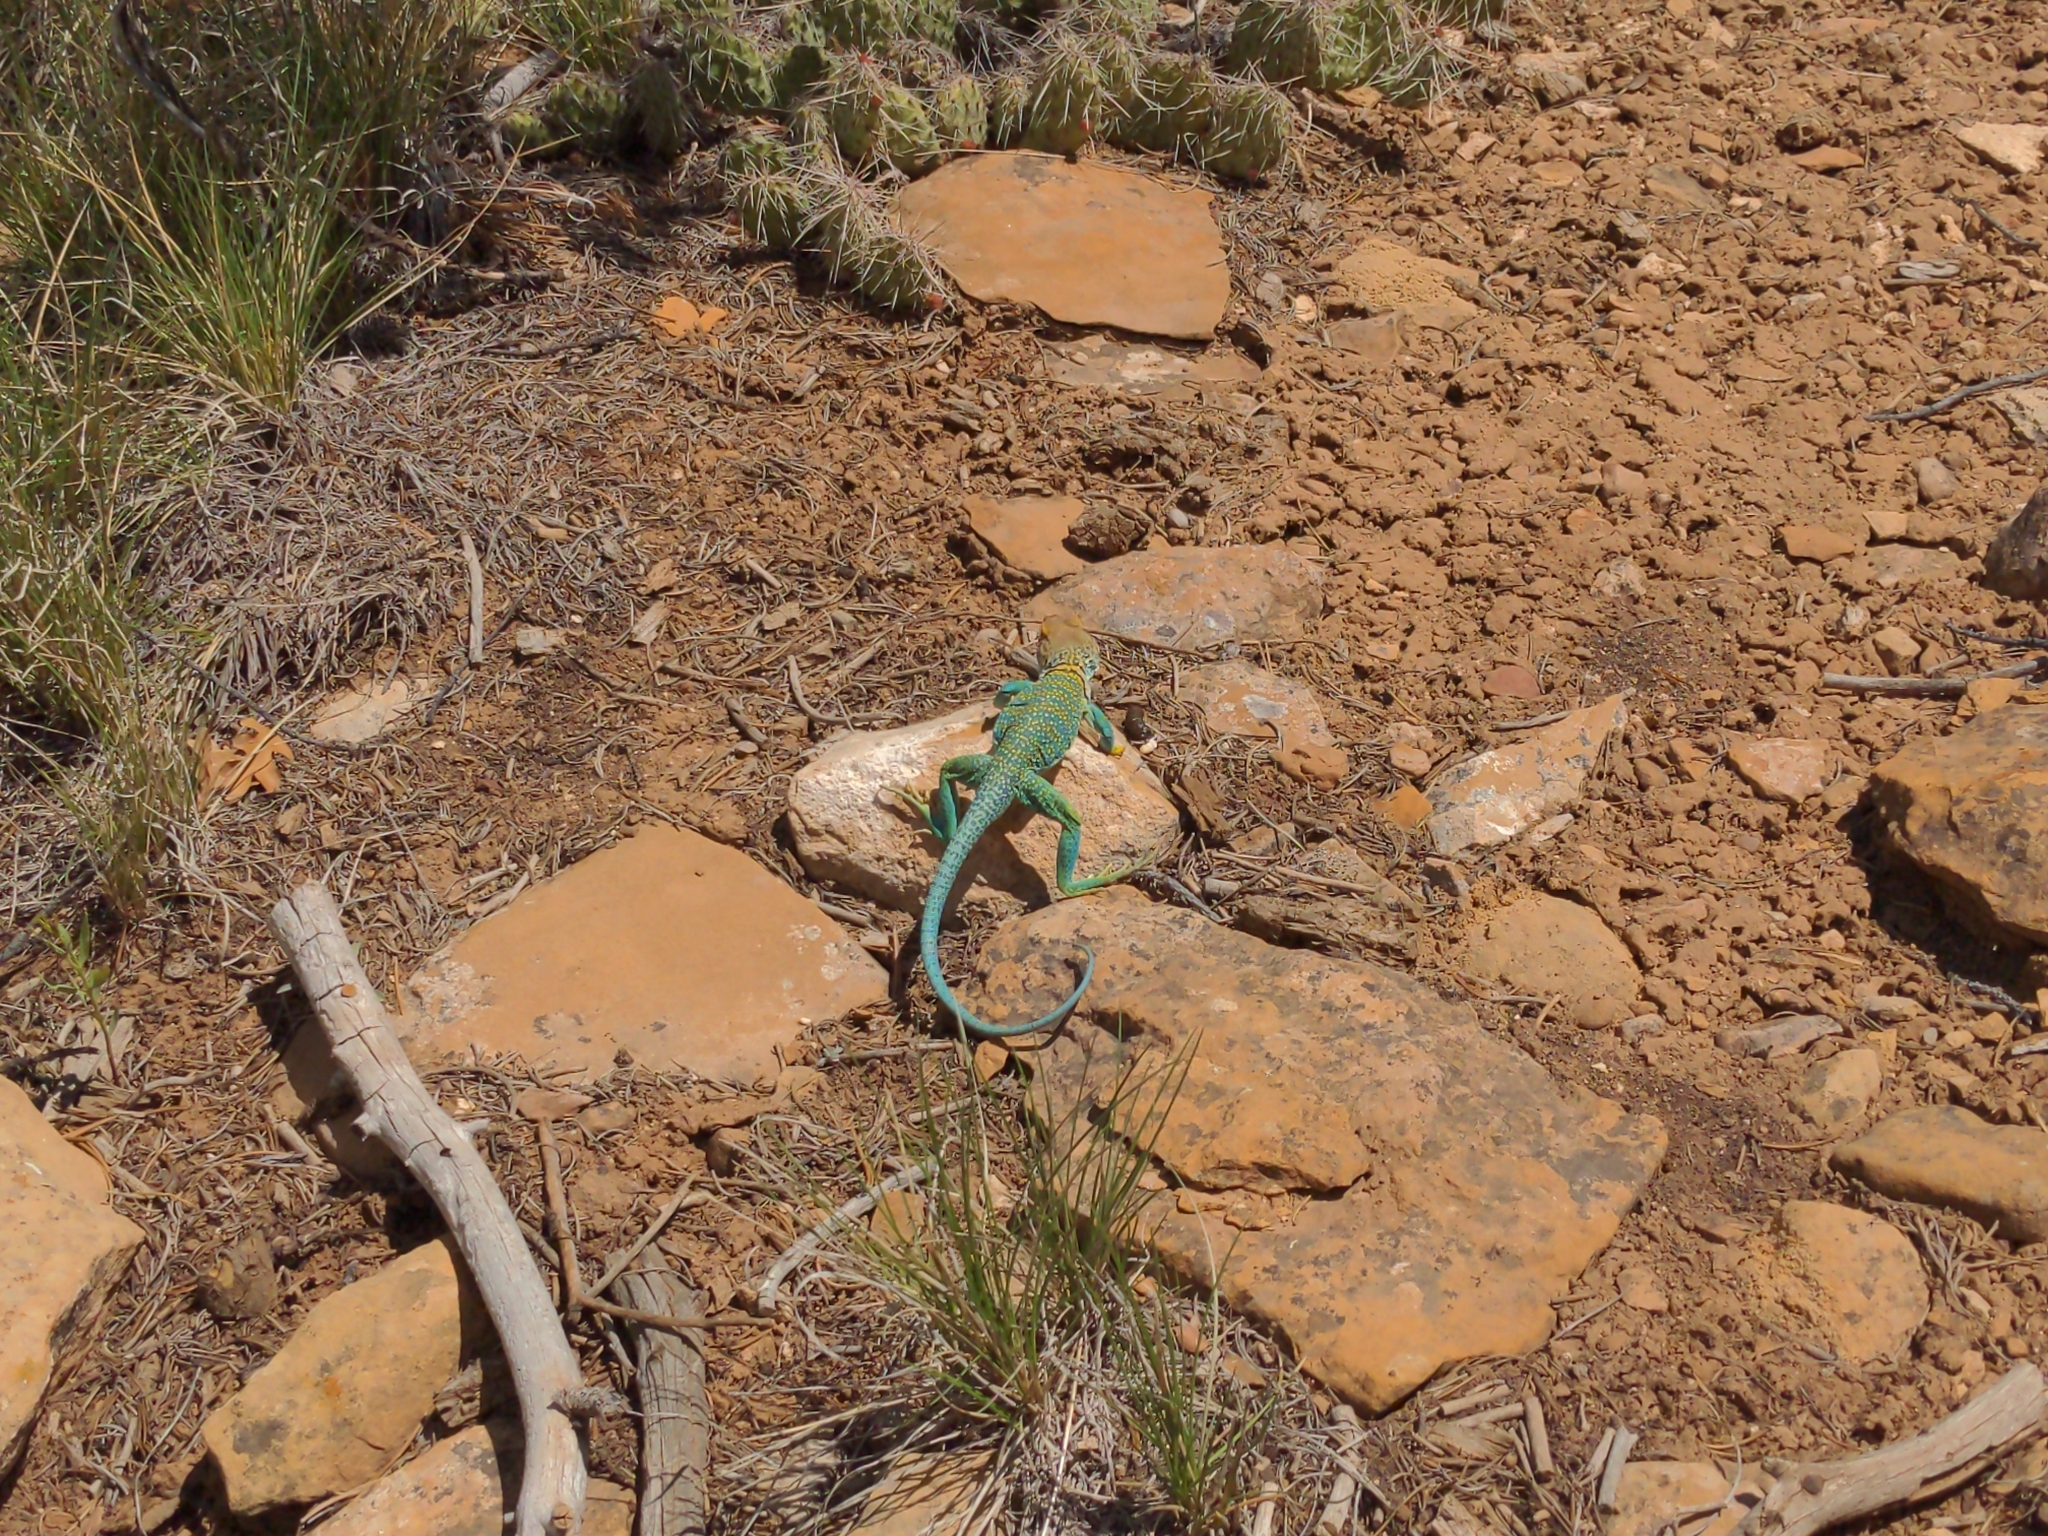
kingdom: Animalia
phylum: Chordata
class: Squamata
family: Crotaphytidae
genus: Crotaphytus
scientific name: Crotaphytus collaris
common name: Collared lizard
